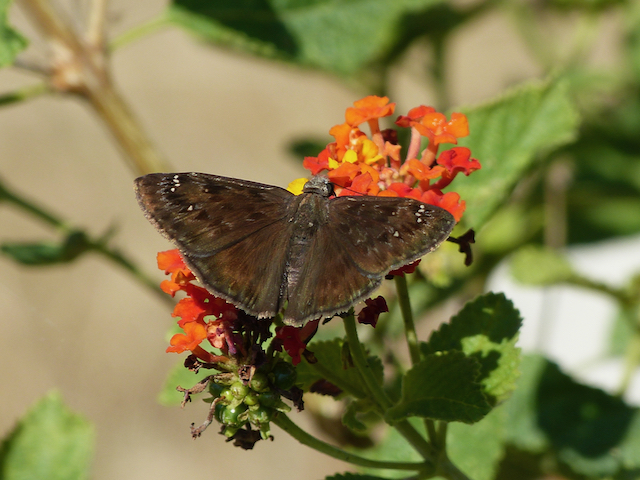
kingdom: Animalia
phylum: Arthropoda
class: Insecta
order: Lepidoptera
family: Hesperiidae
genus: Erynnis
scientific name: Erynnis horatius
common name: Horace's duskywing
